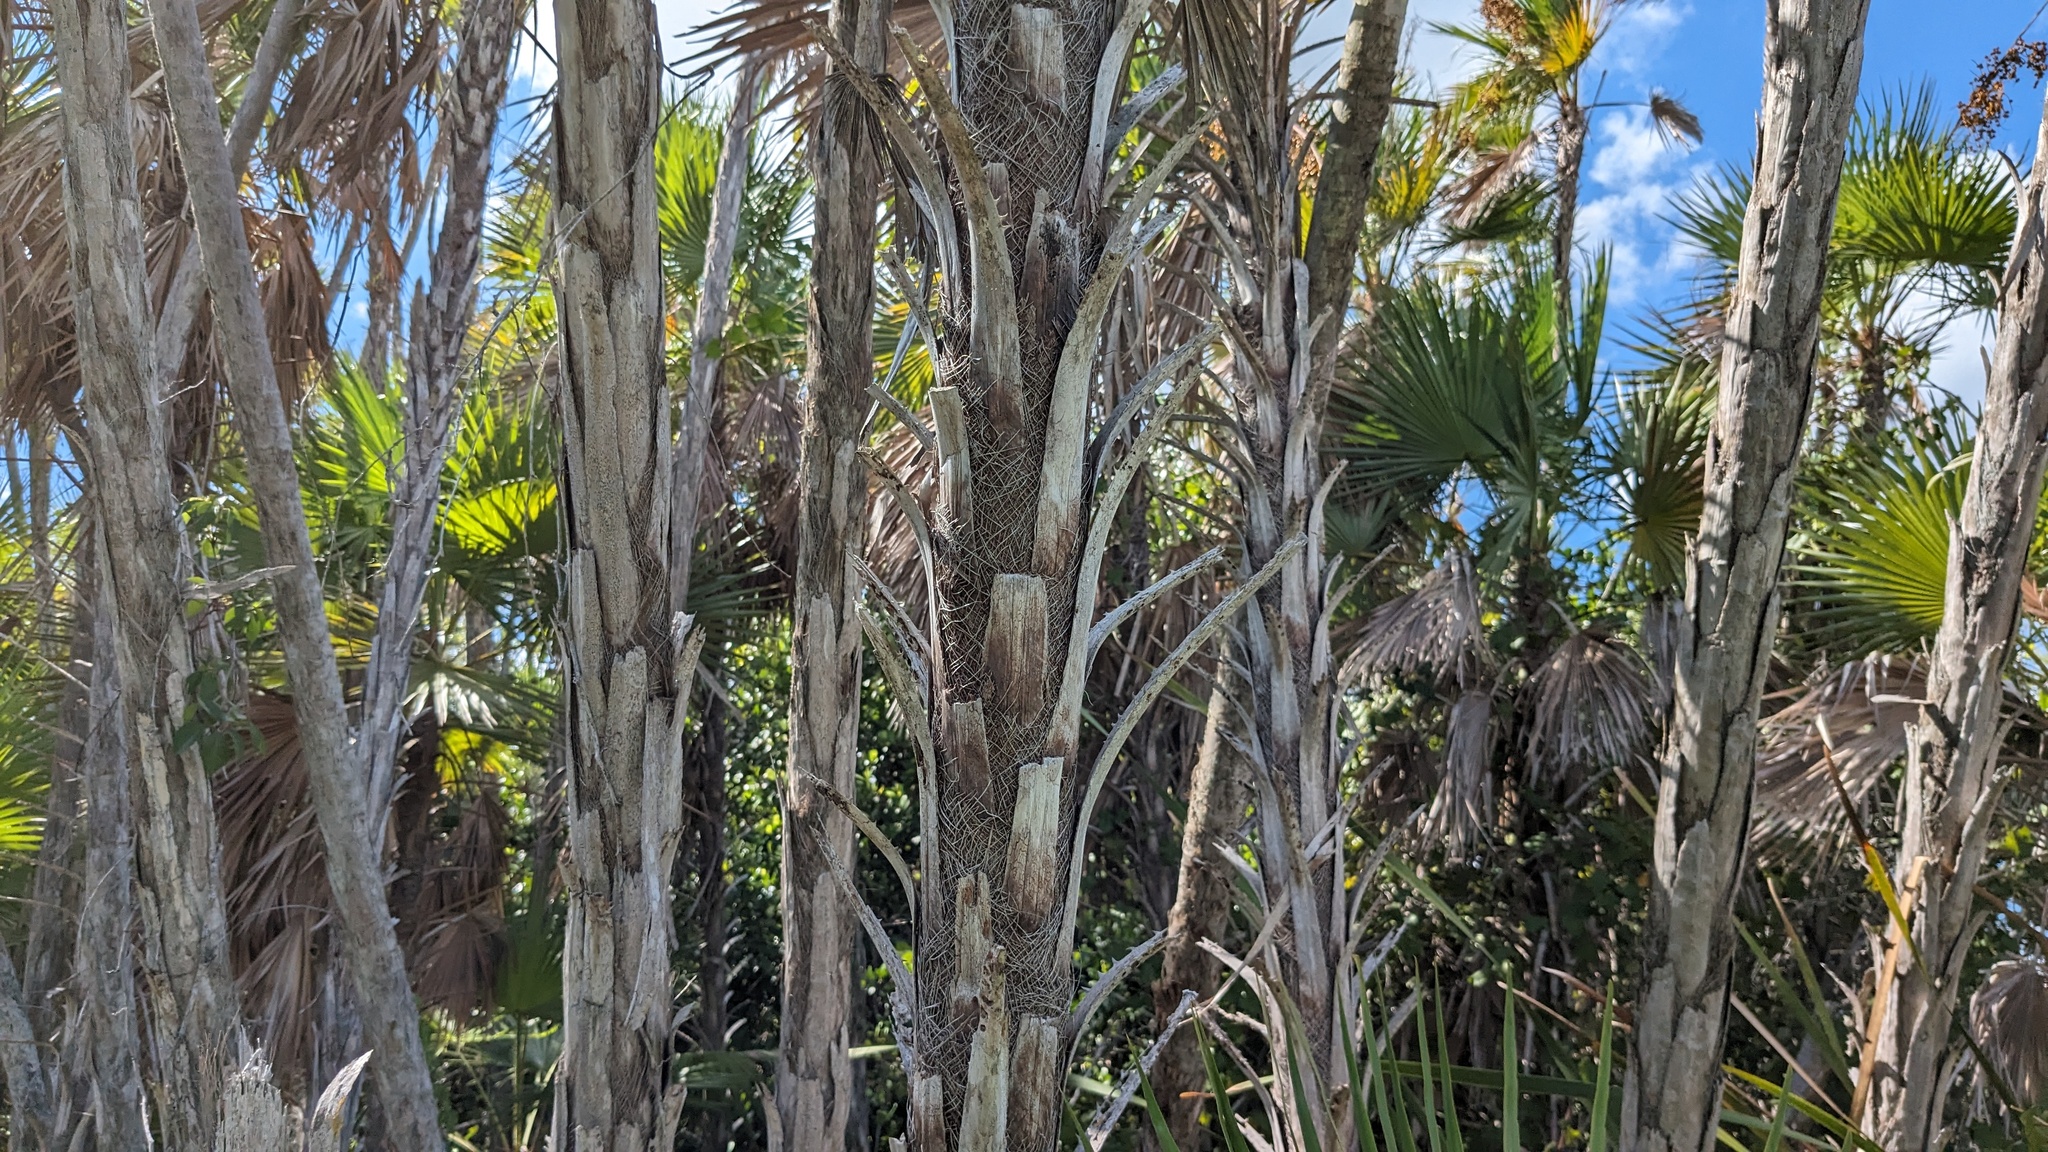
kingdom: Plantae
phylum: Tracheophyta
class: Liliopsida
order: Arecales
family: Arecaceae
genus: Acoelorraphe
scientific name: Acoelorraphe wrightii
